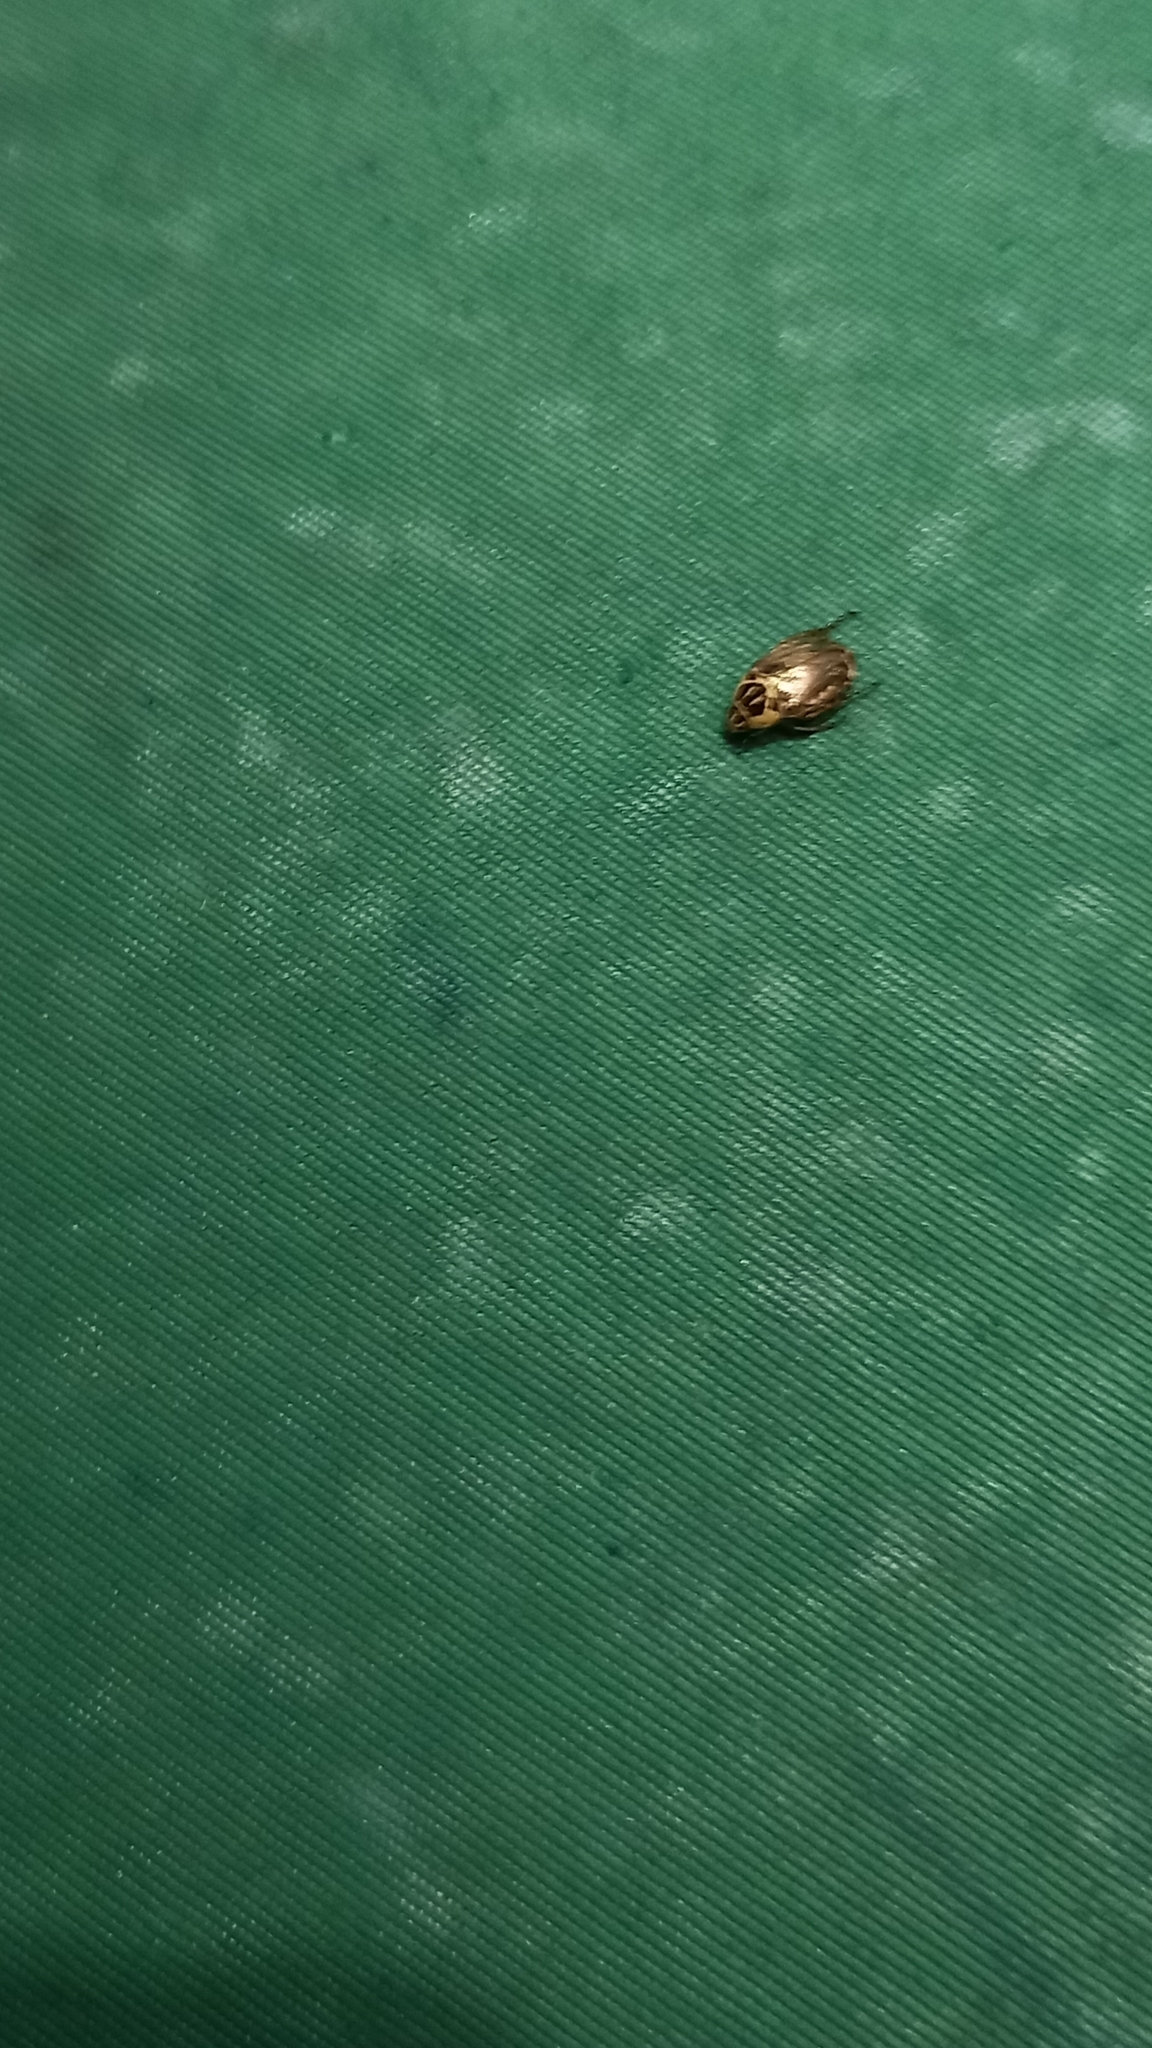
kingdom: Animalia
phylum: Arthropoda
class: Insecta
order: Coleoptera
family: Scarabaeidae
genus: Mimela
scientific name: Mimela signaticollis
